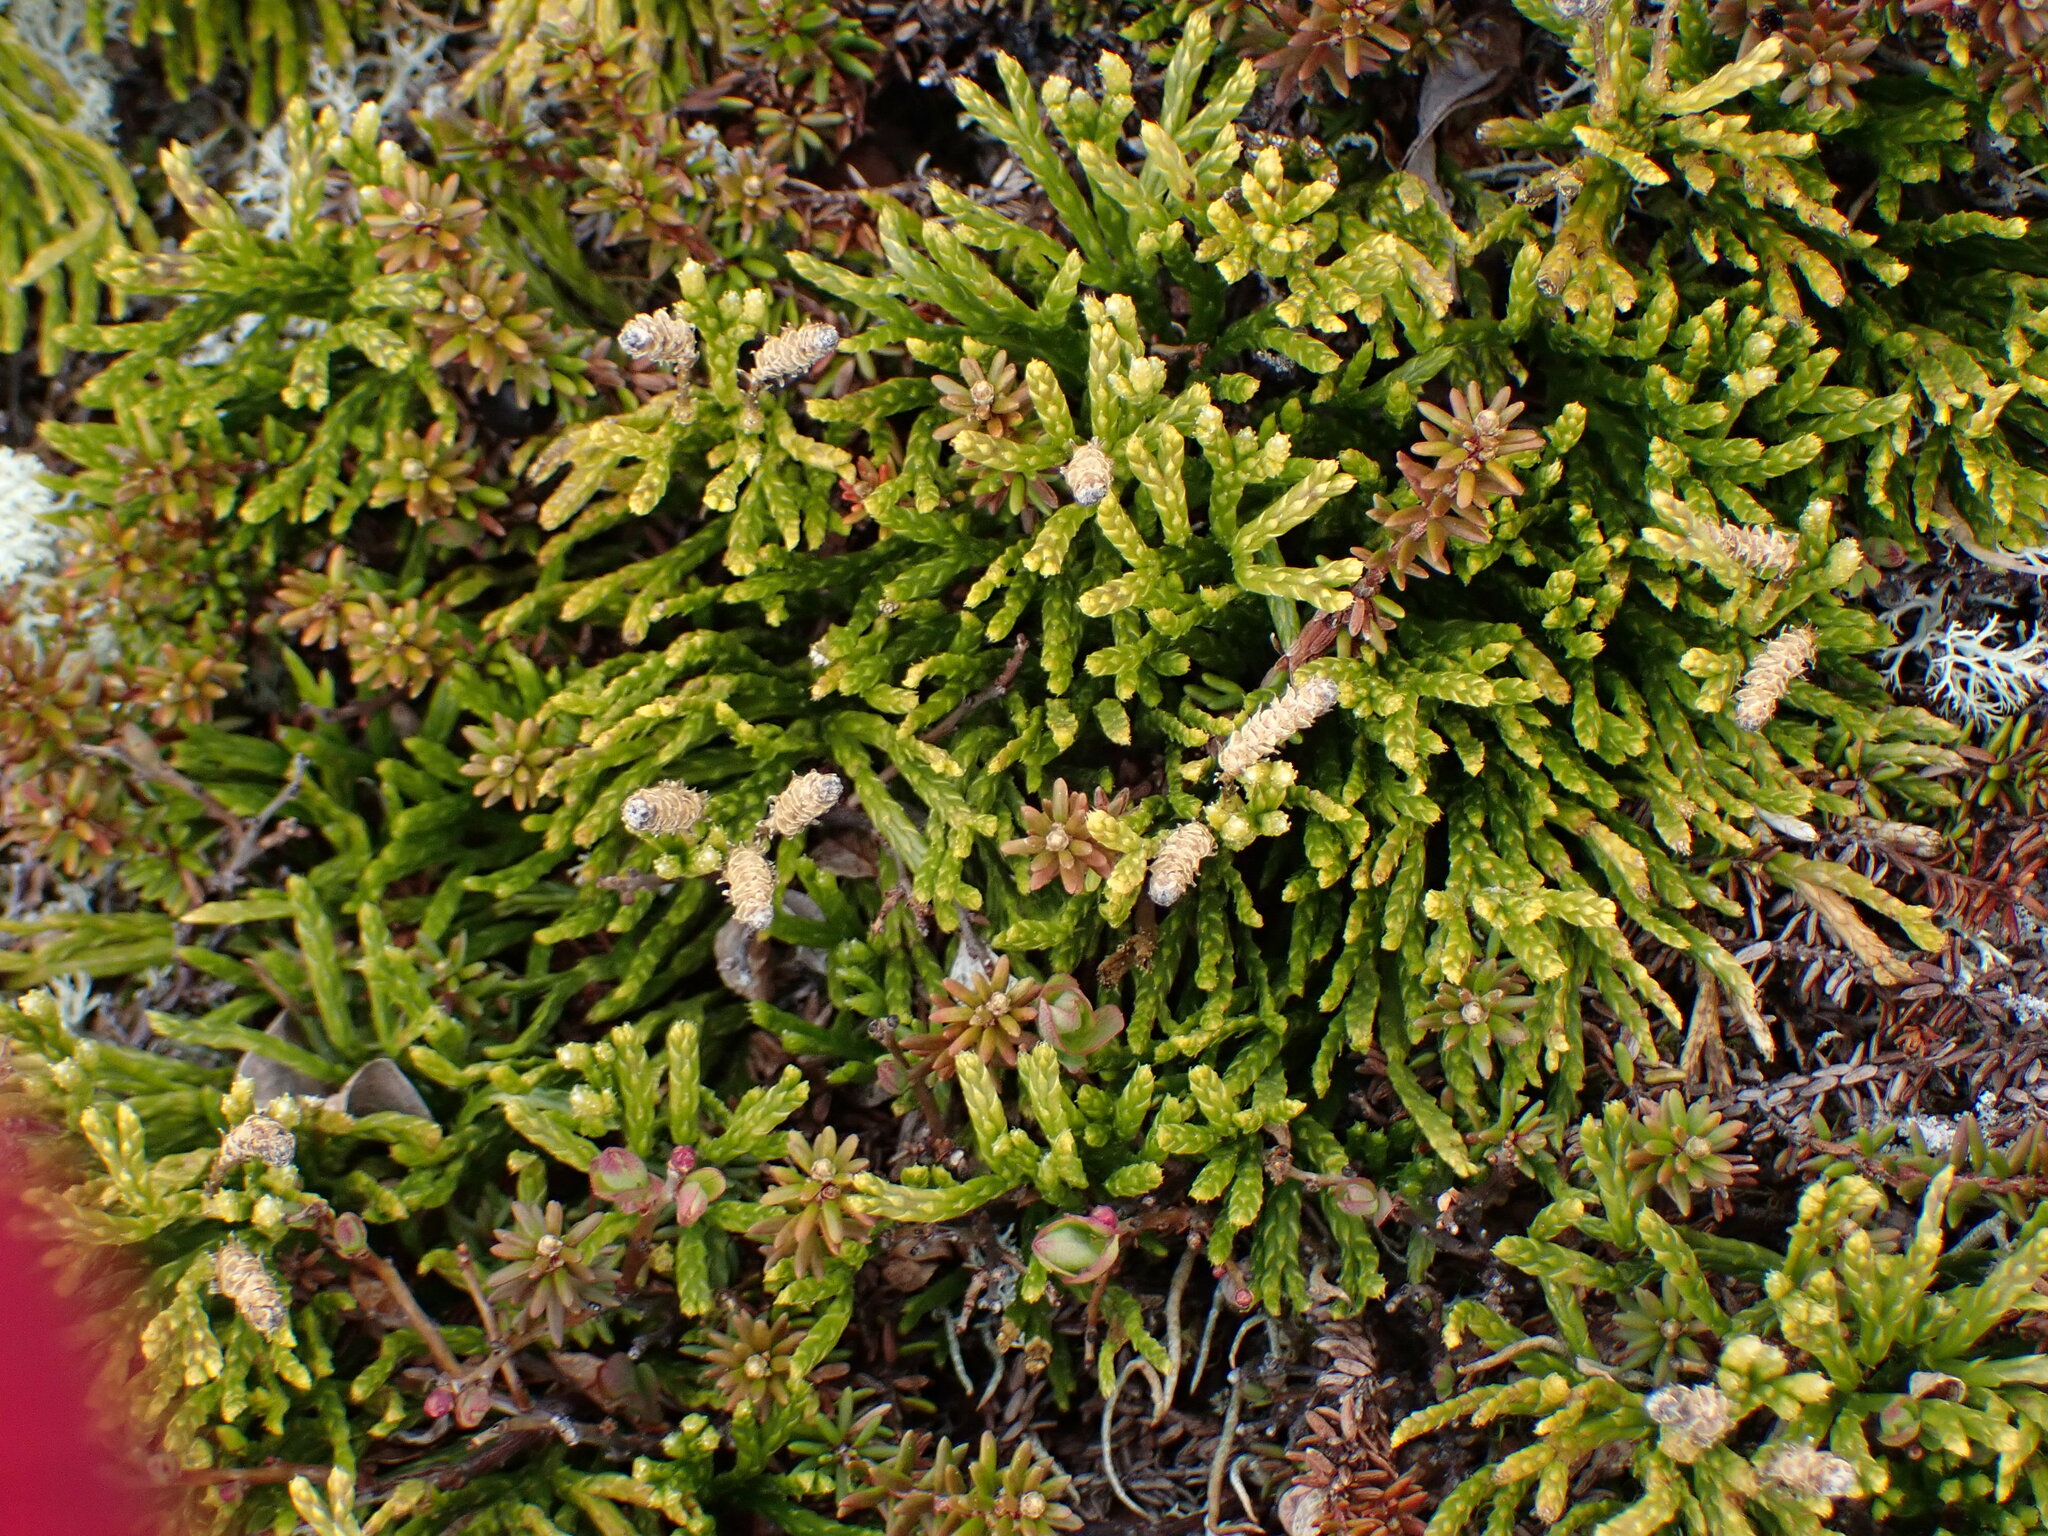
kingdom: Plantae
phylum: Tracheophyta
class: Lycopodiopsida
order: Lycopodiales
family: Lycopodiaceae
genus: Diphasiastrum
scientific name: Diphasiastrum complanatum
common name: Northern running-pine
